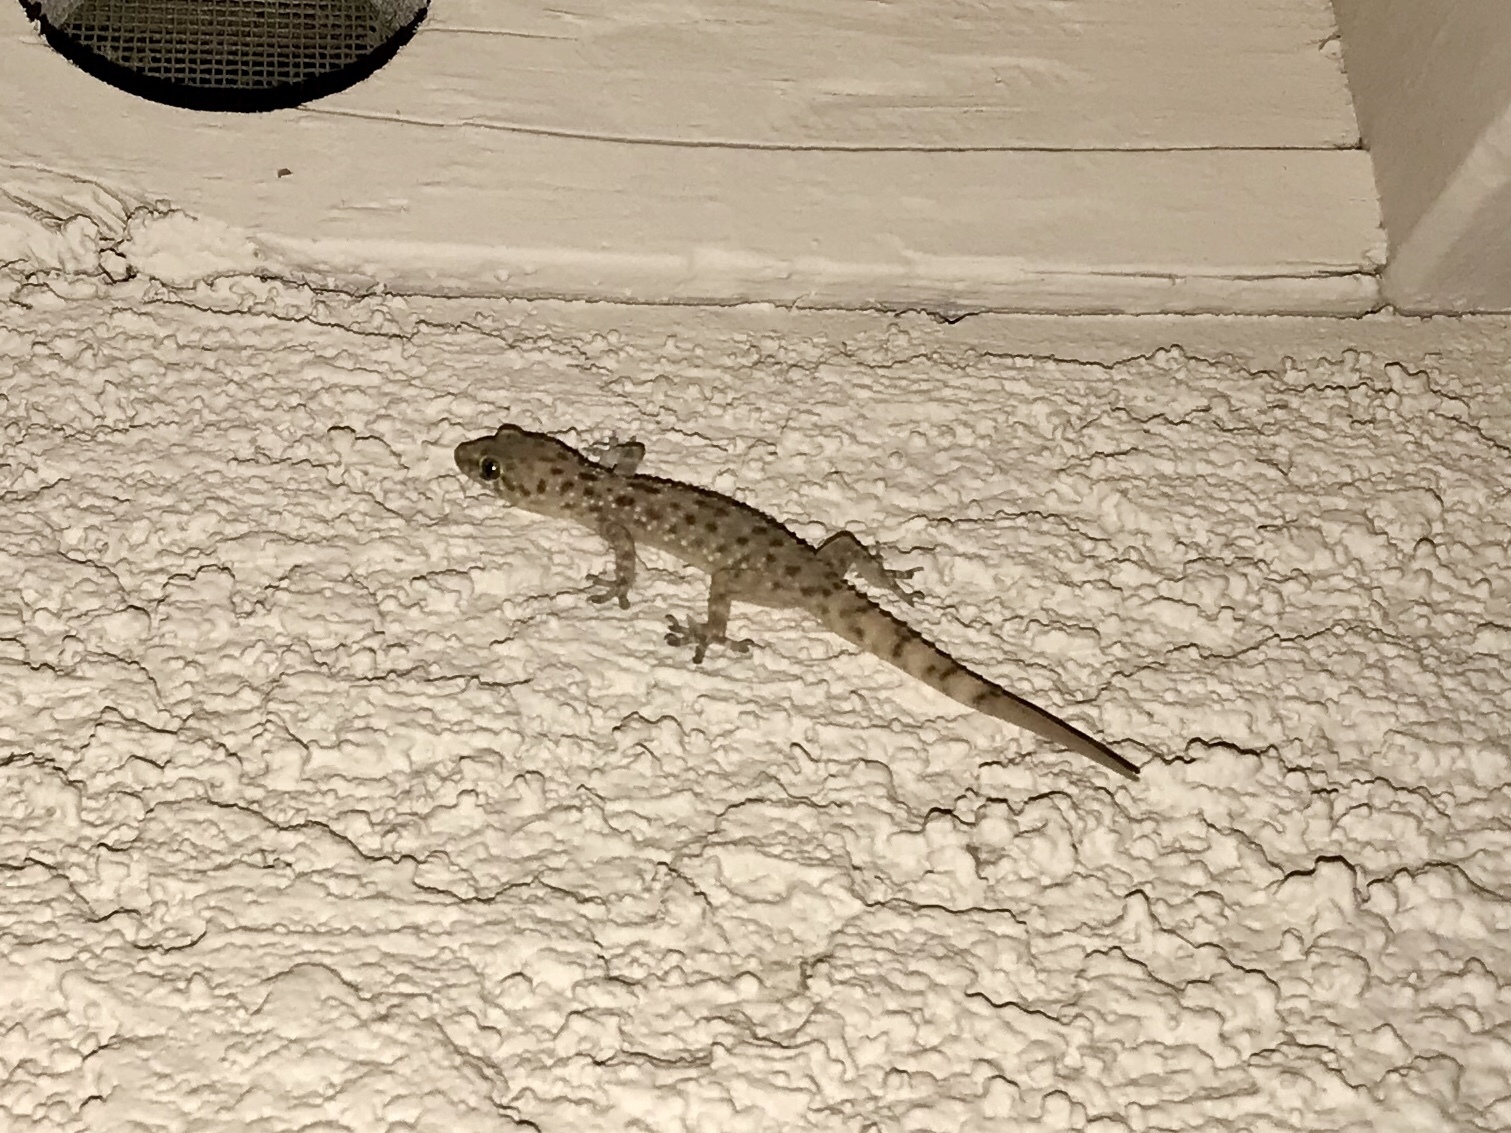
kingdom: Animalia
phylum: Chordata
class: Squamata
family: Gekkonidae
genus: Hemidactylus
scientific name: Hemidactylus turcicus
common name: Turkish gecko
